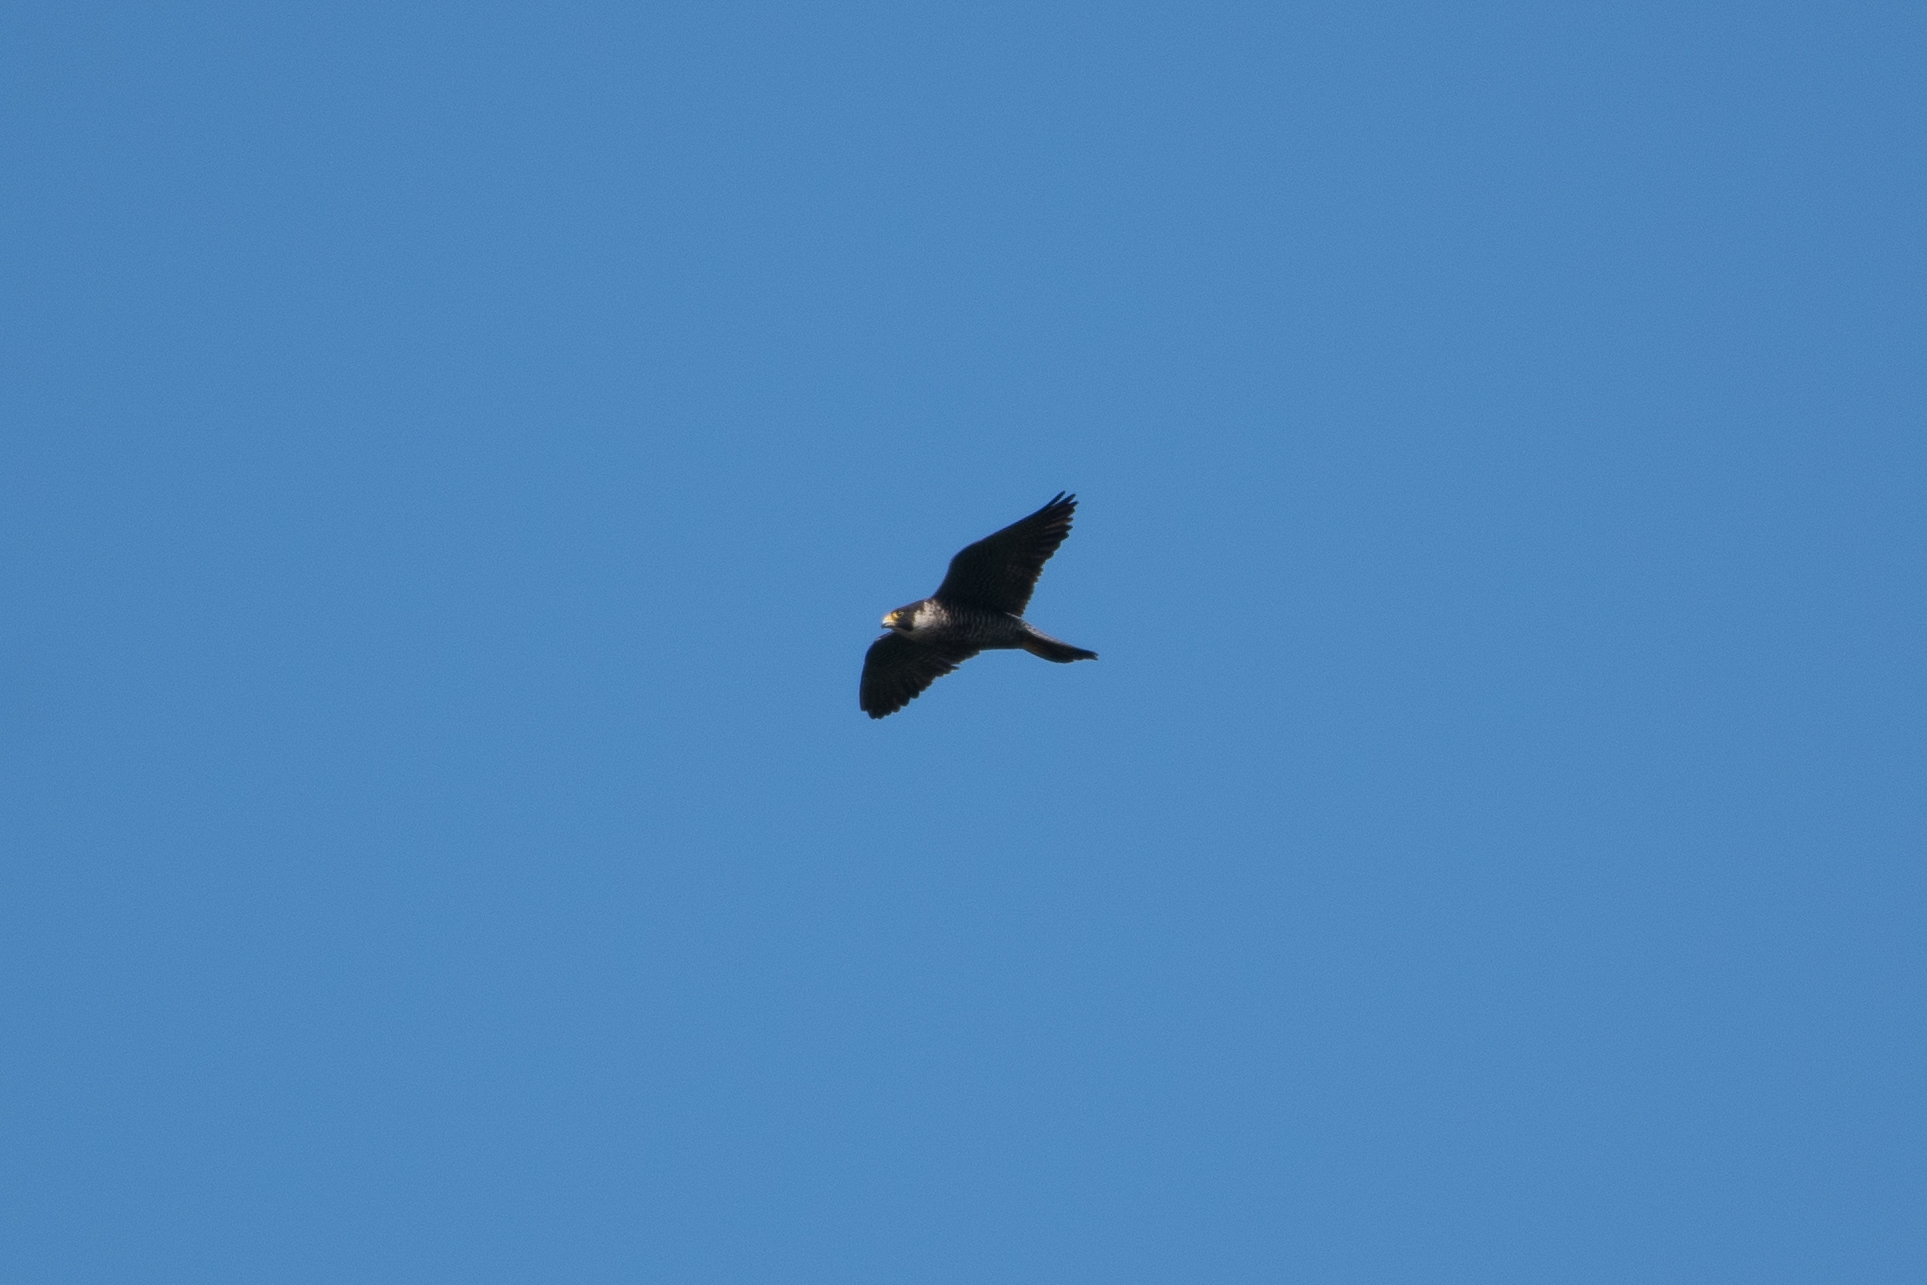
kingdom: Animalia
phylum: Chordata
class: Aves
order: Falconiformes
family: Falconidae
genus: Falco
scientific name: Falco peregrinus
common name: Peregrine falcon
